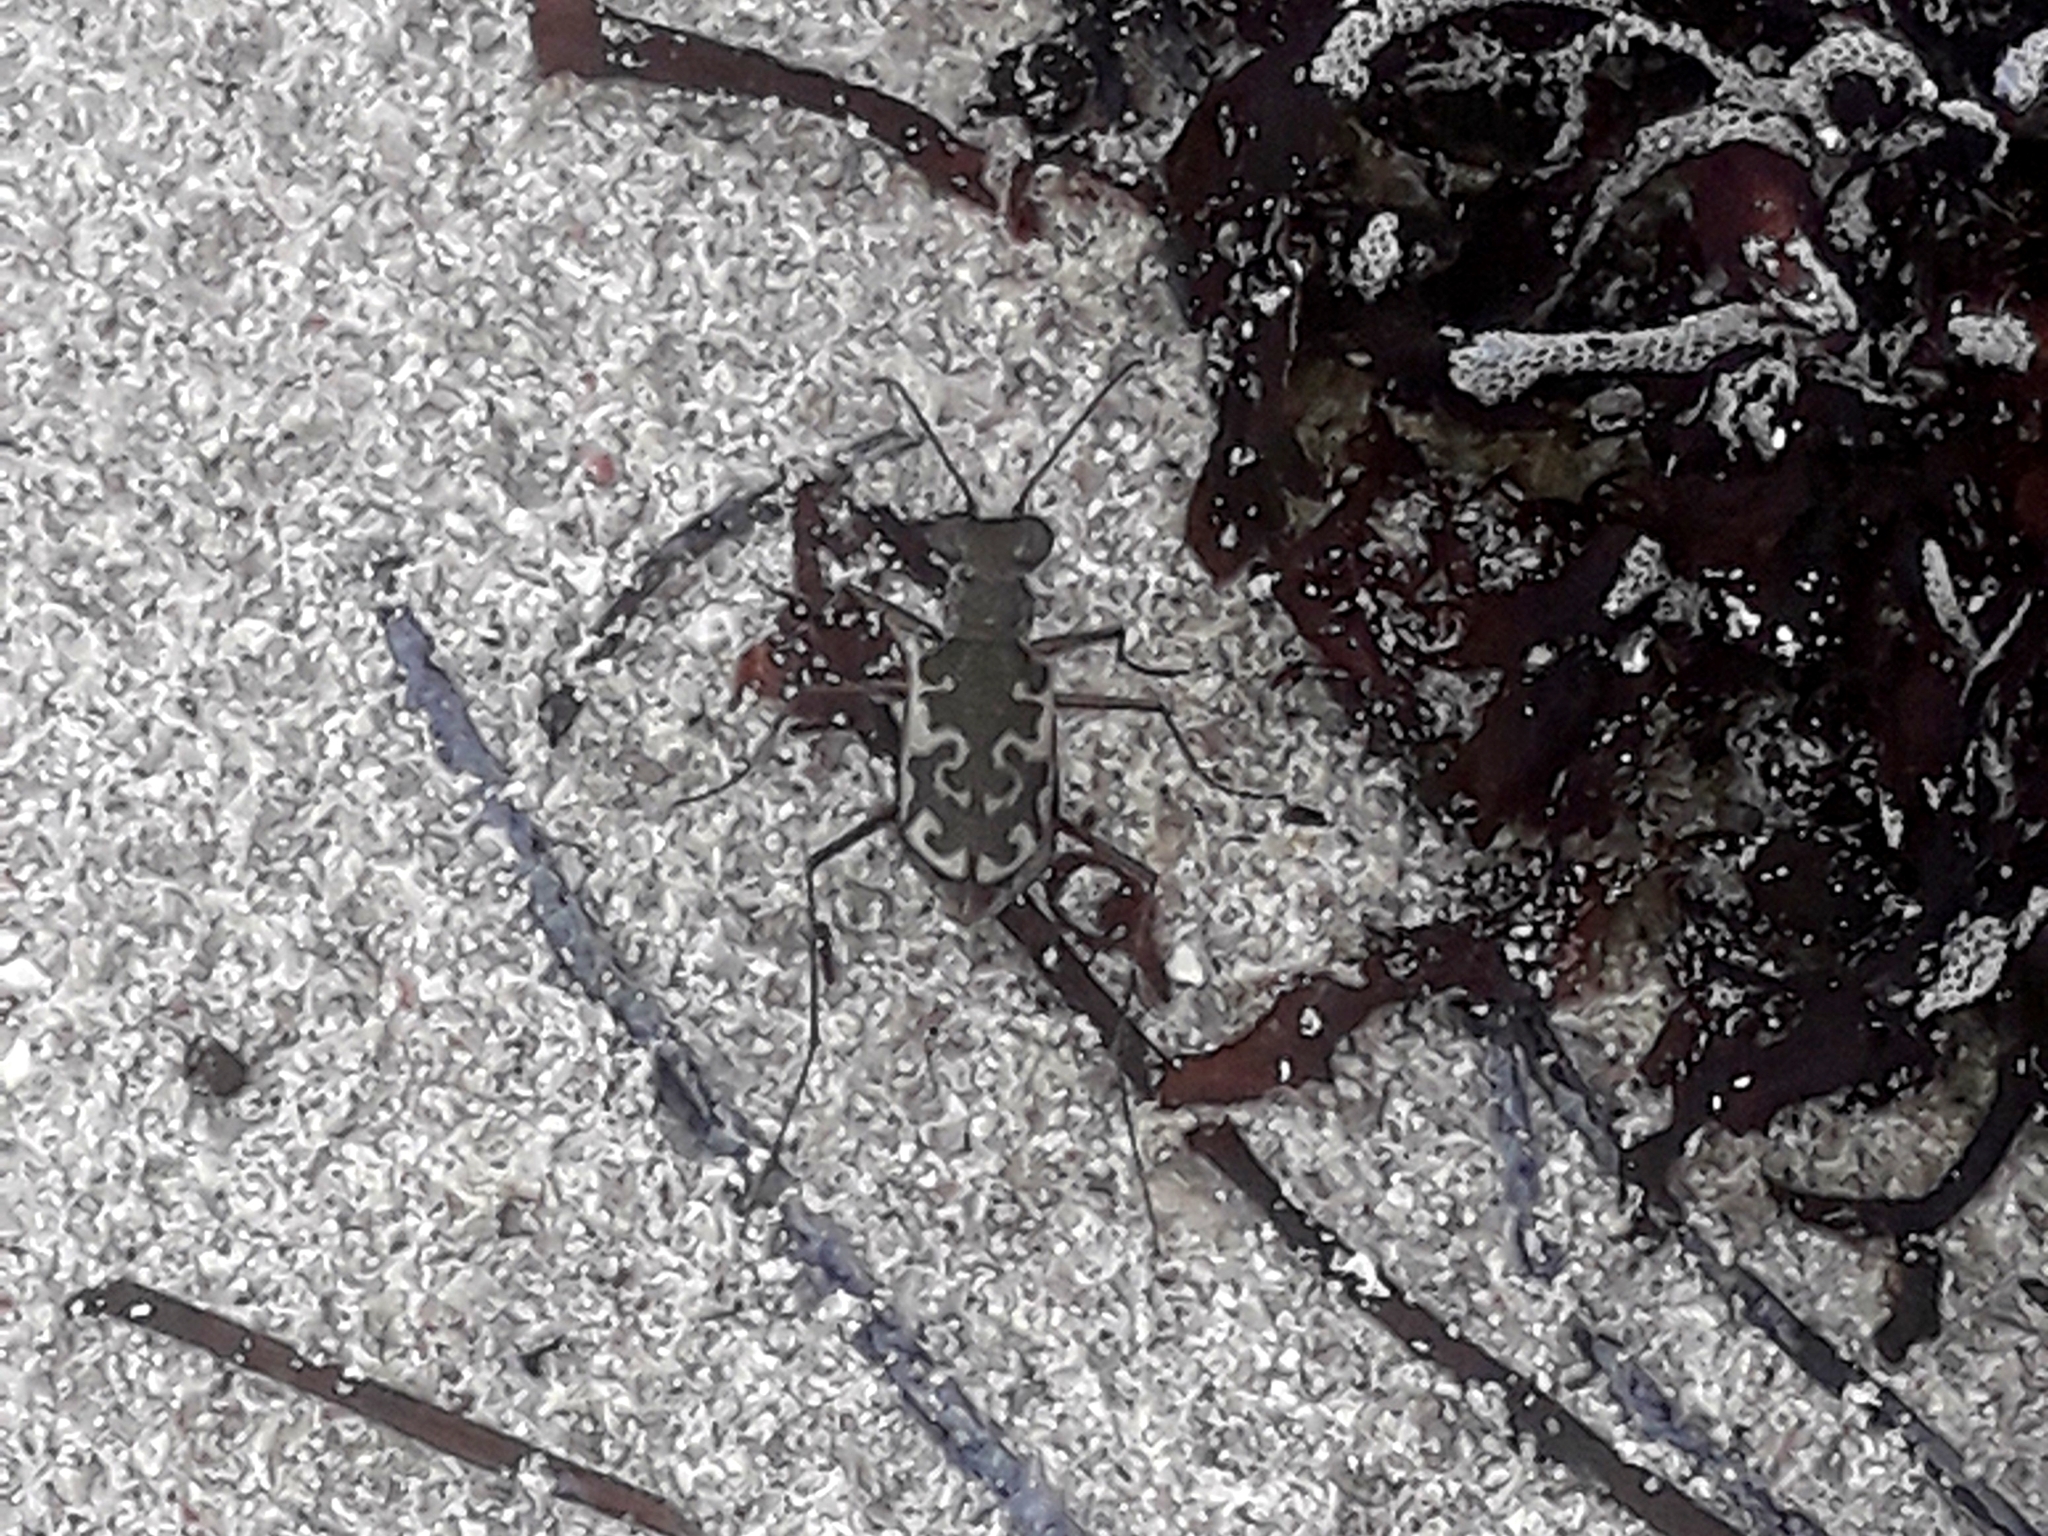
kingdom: Animalia
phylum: Arthropoda
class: Insecta
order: Coleoptera
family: Carabidae
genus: Cicindela
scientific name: Cicindela trifasciata
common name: Mudflat tiger beetle
